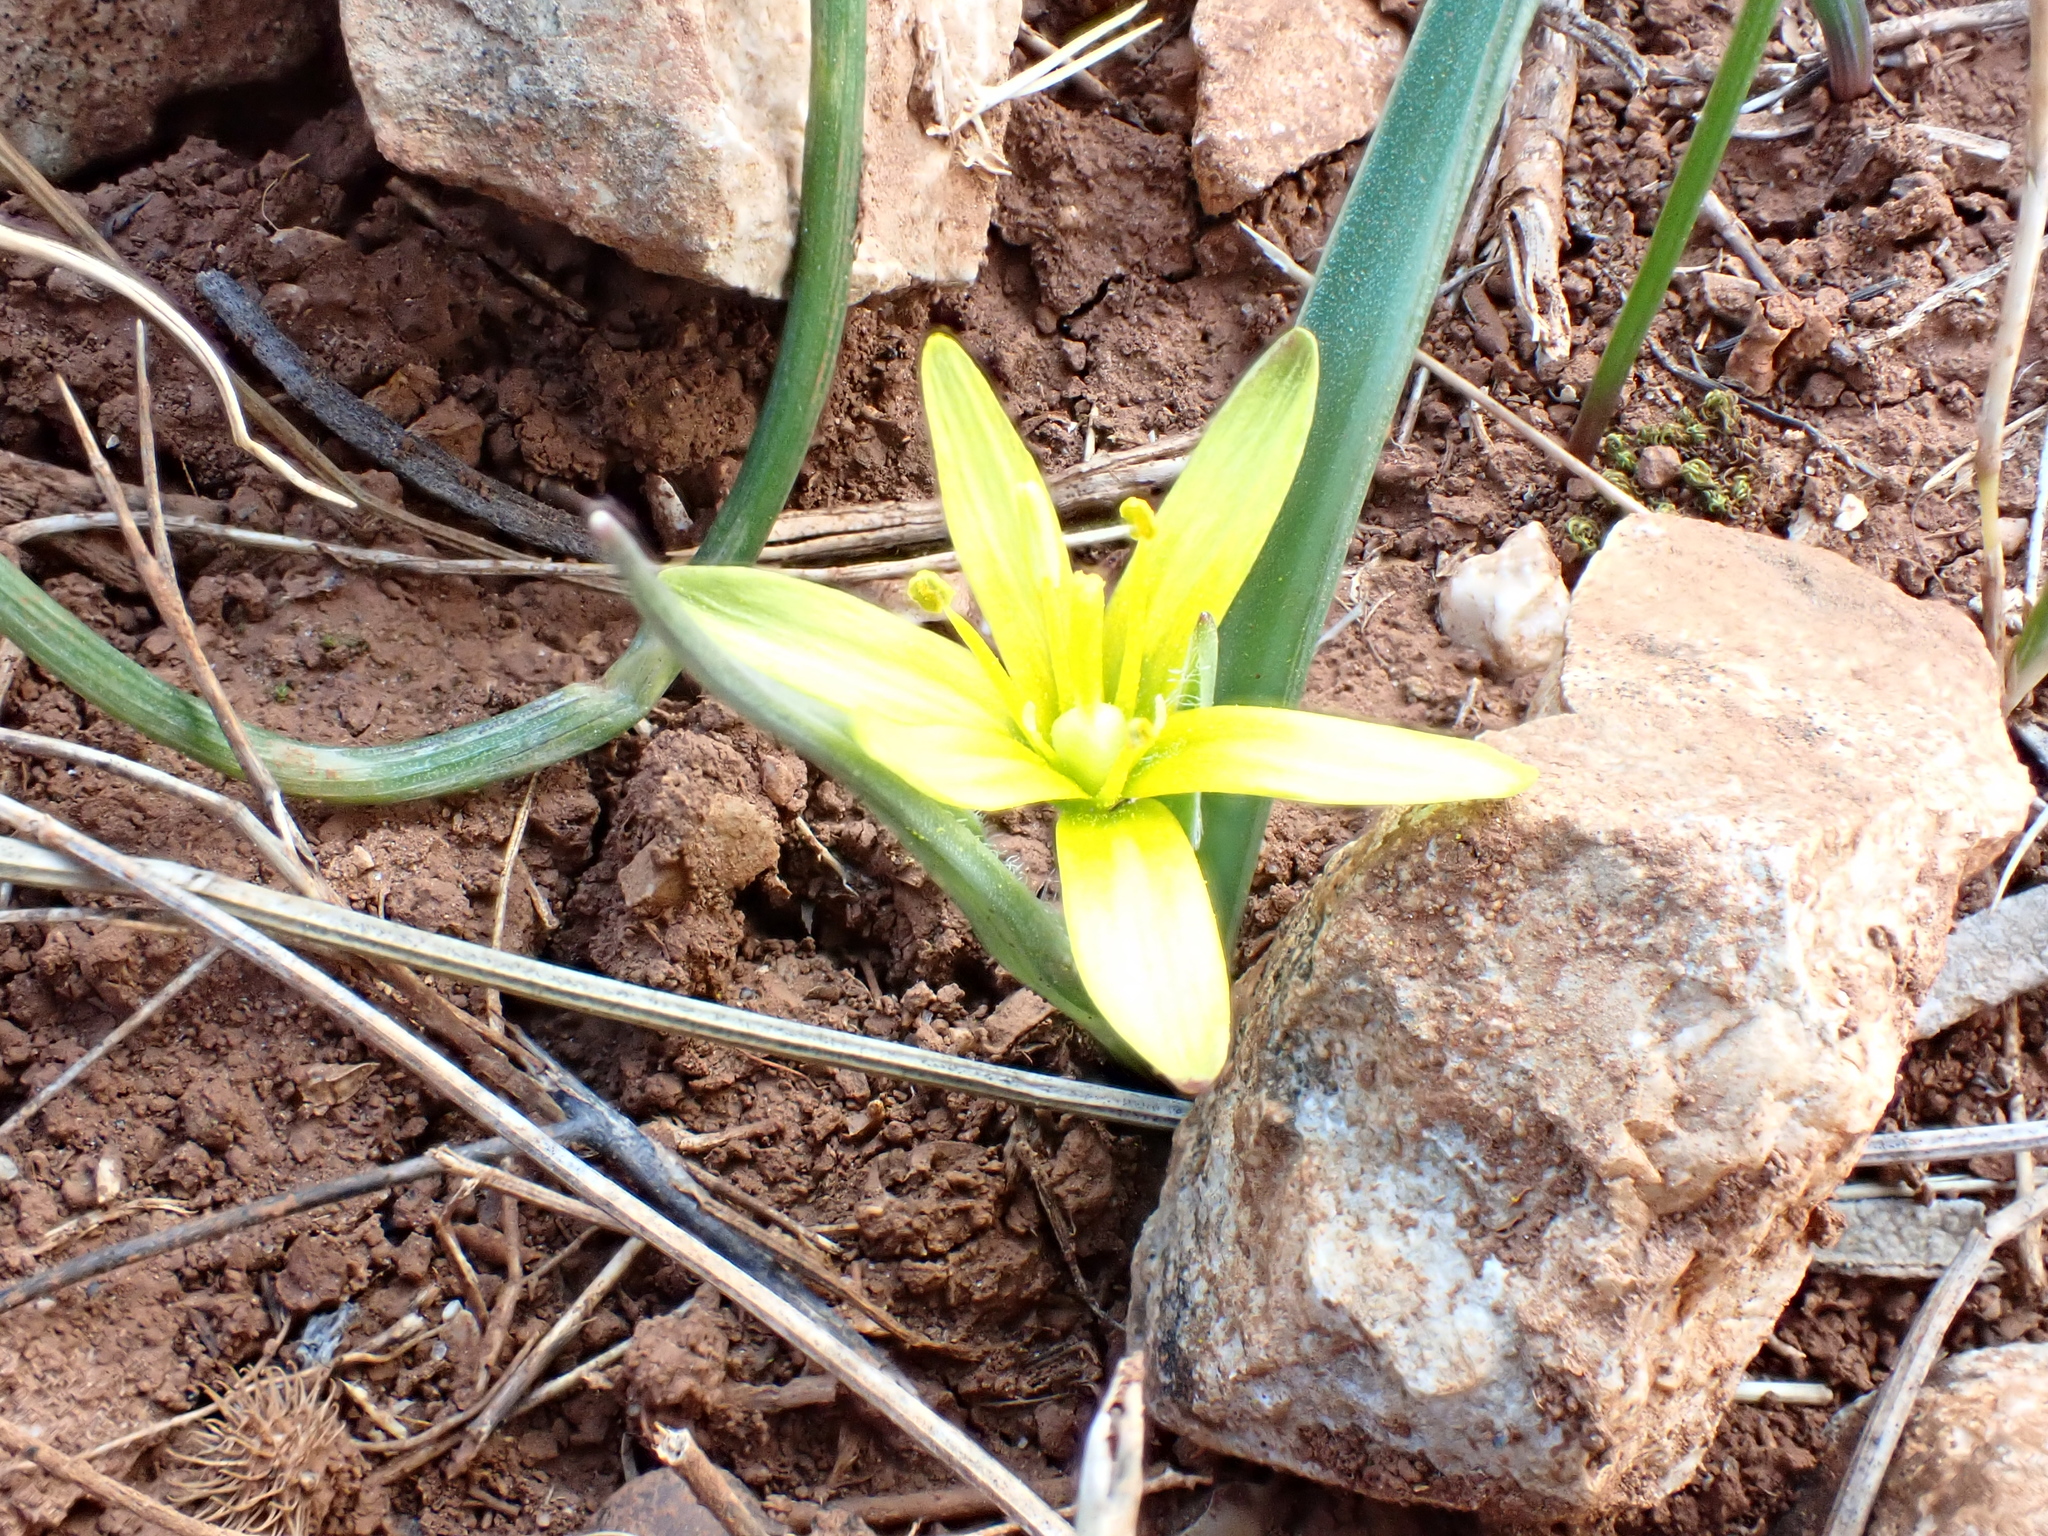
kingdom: Plantae
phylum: Tracheophyta
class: Liliopsida
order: Liliales
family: Liliaceae
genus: Gagea
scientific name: Gagea pratensis
